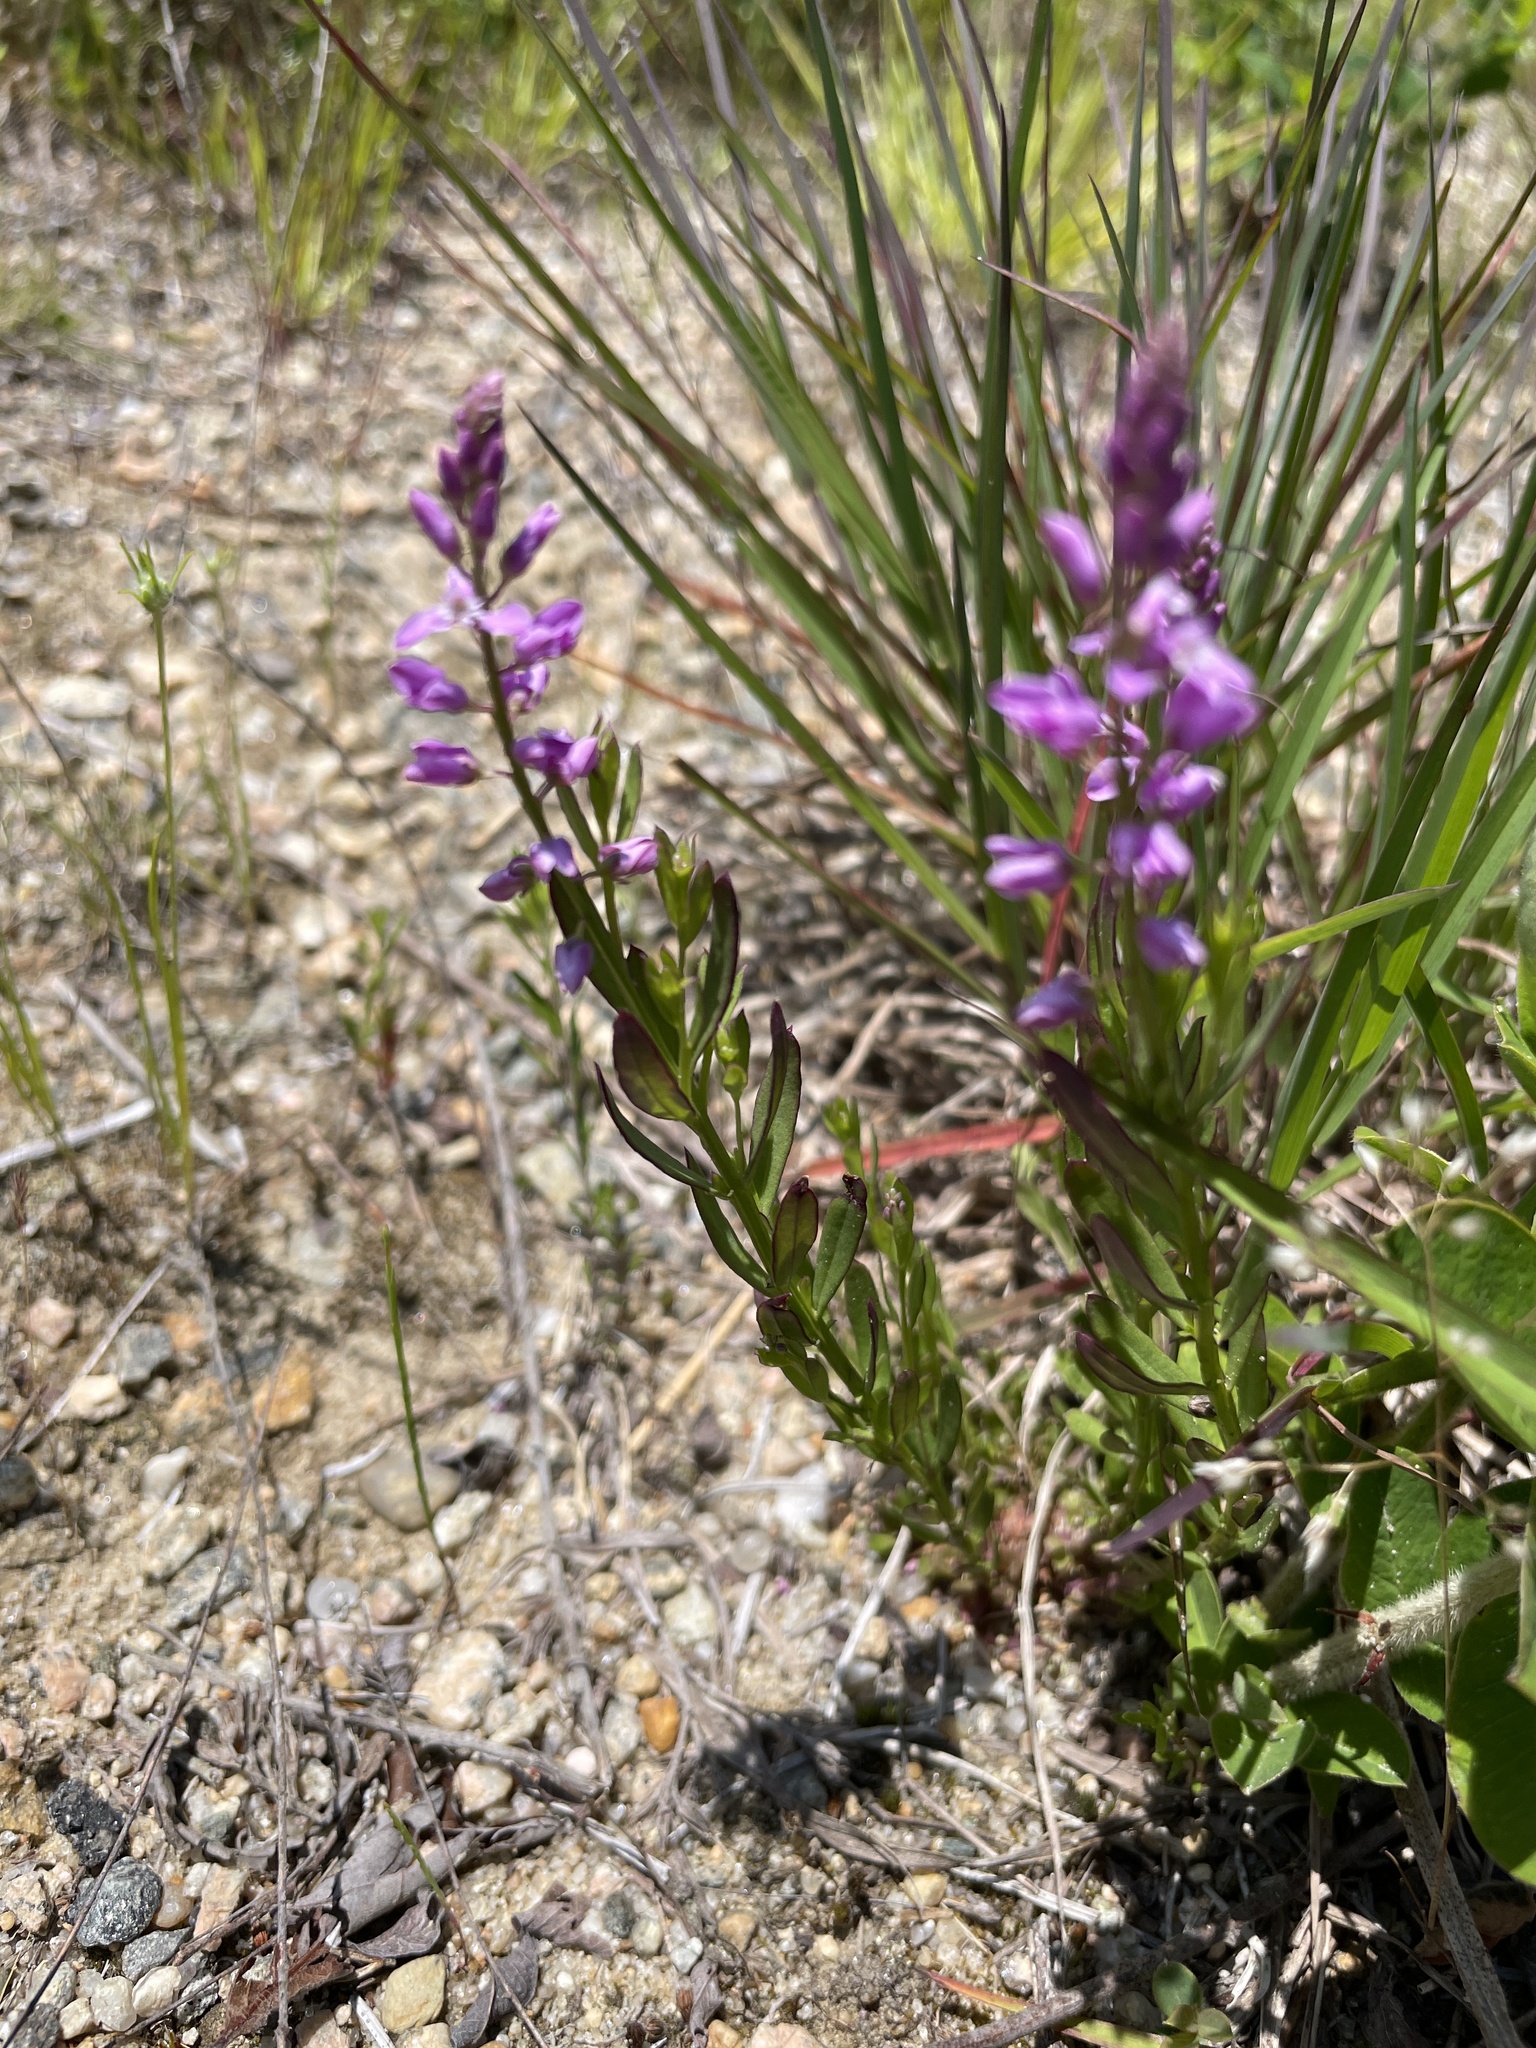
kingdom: Plantae
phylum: Tracheophyta
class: Magnoliopsida
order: Fabales
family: Polygalaceae
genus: Polygala
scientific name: Polygala polygama
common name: Bitter milkwort
